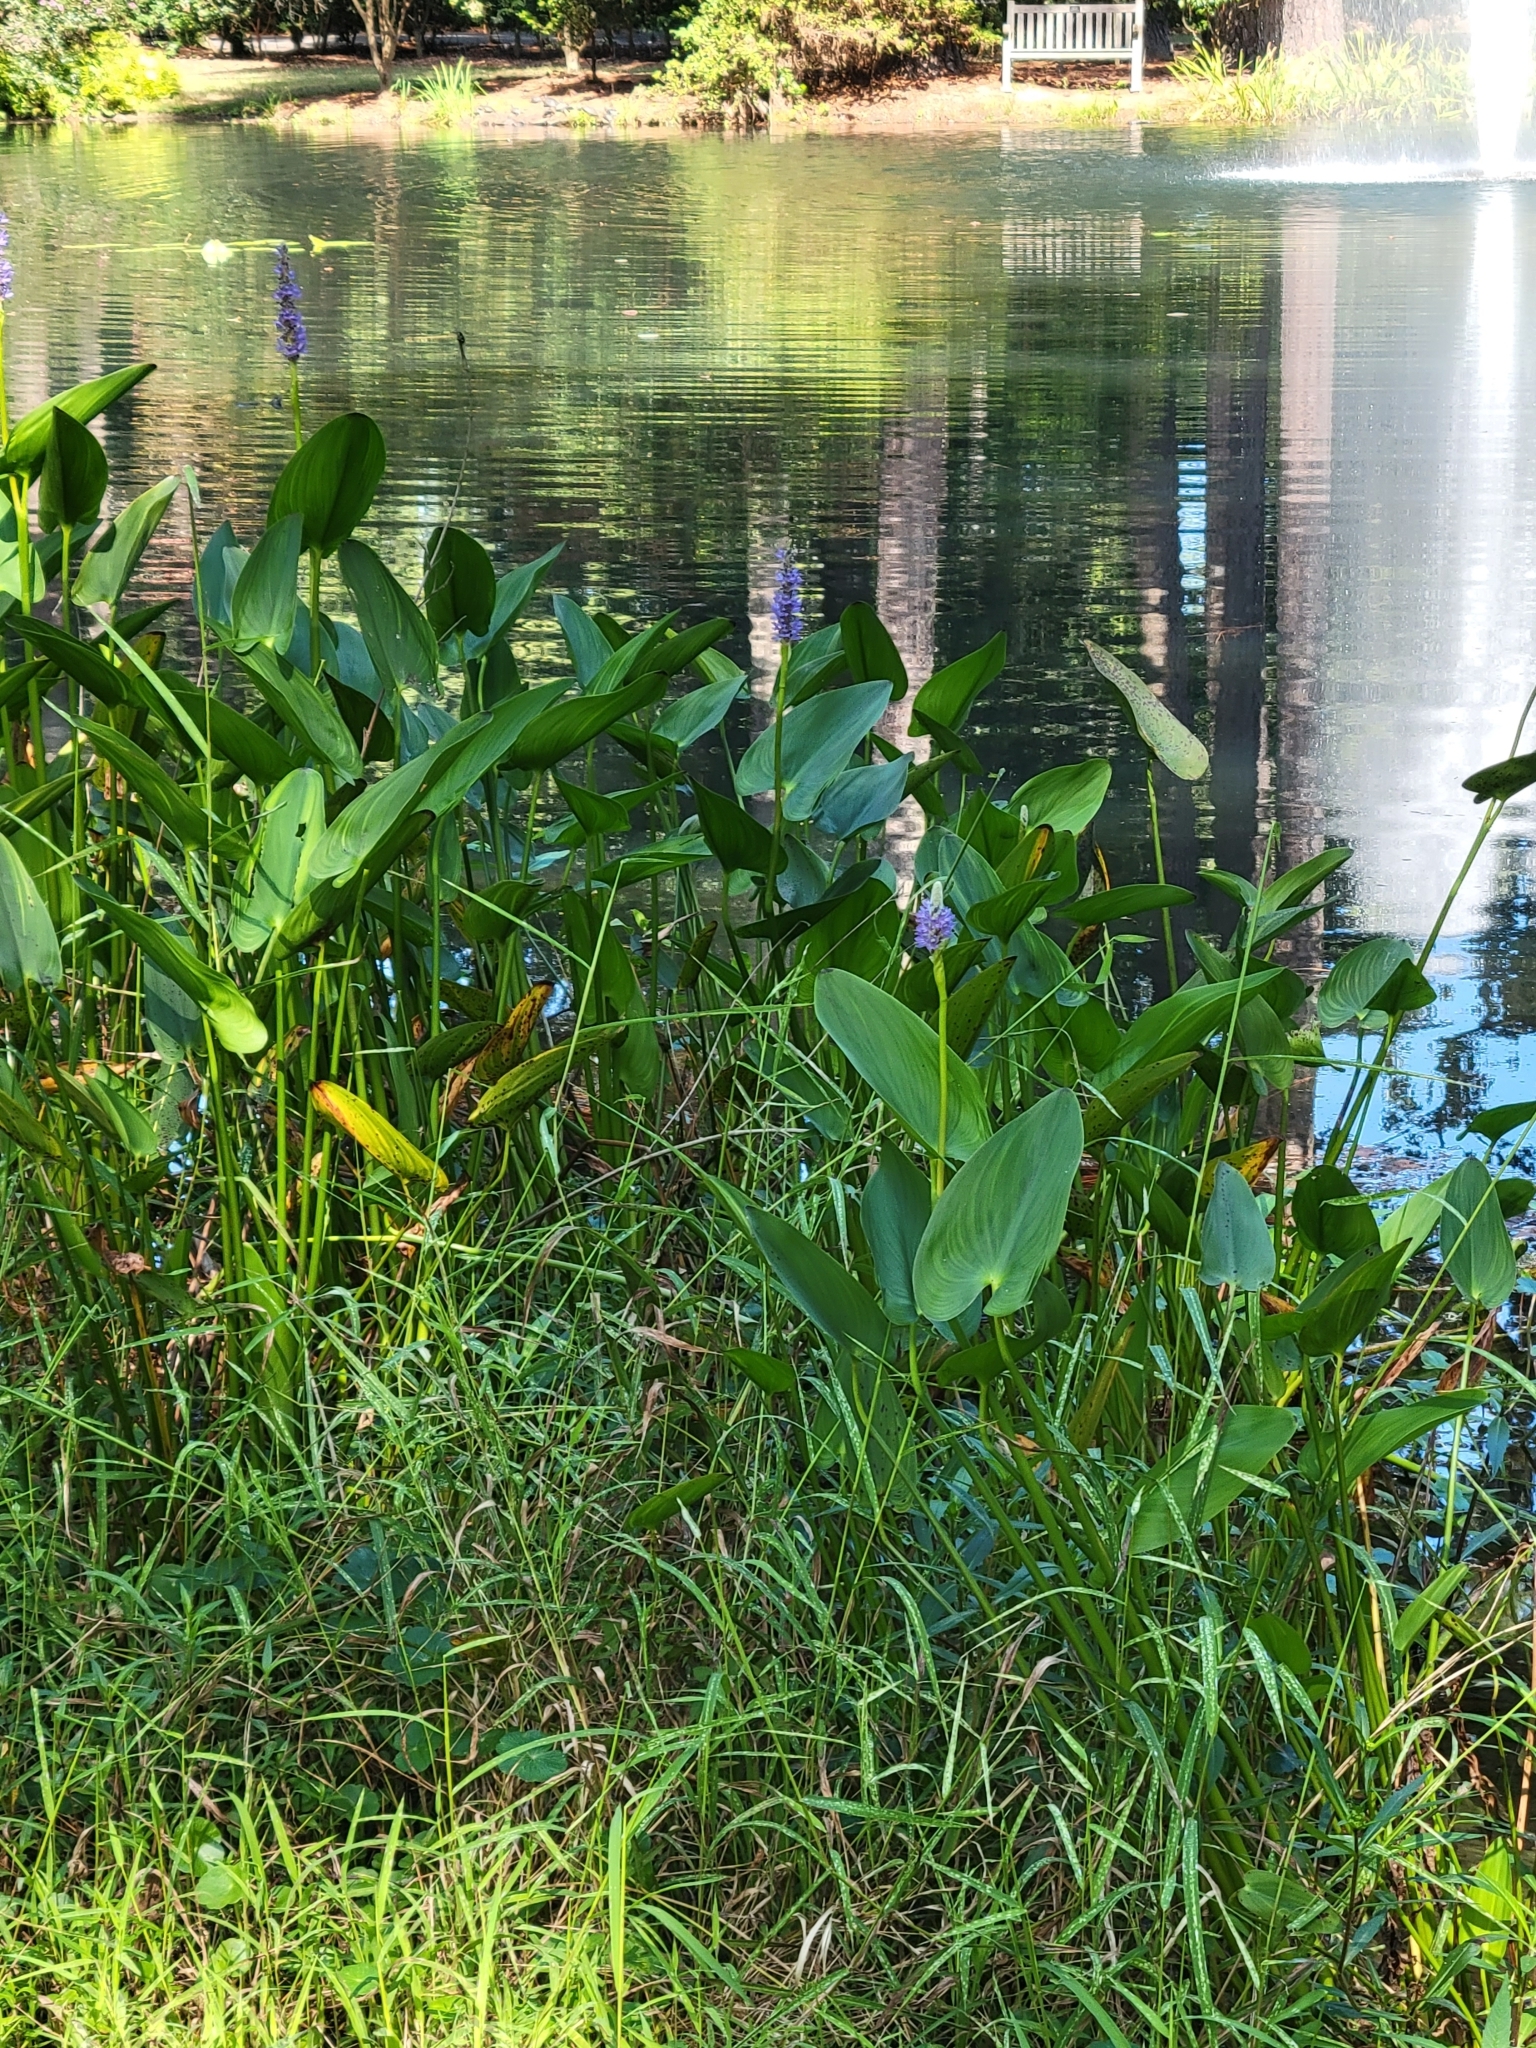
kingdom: Plantae
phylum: Tracheophyta
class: Liliopsida
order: Commelinales
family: Pontederiaceae
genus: Pontederia
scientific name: Pontederia cordata
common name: Pickerelweed
